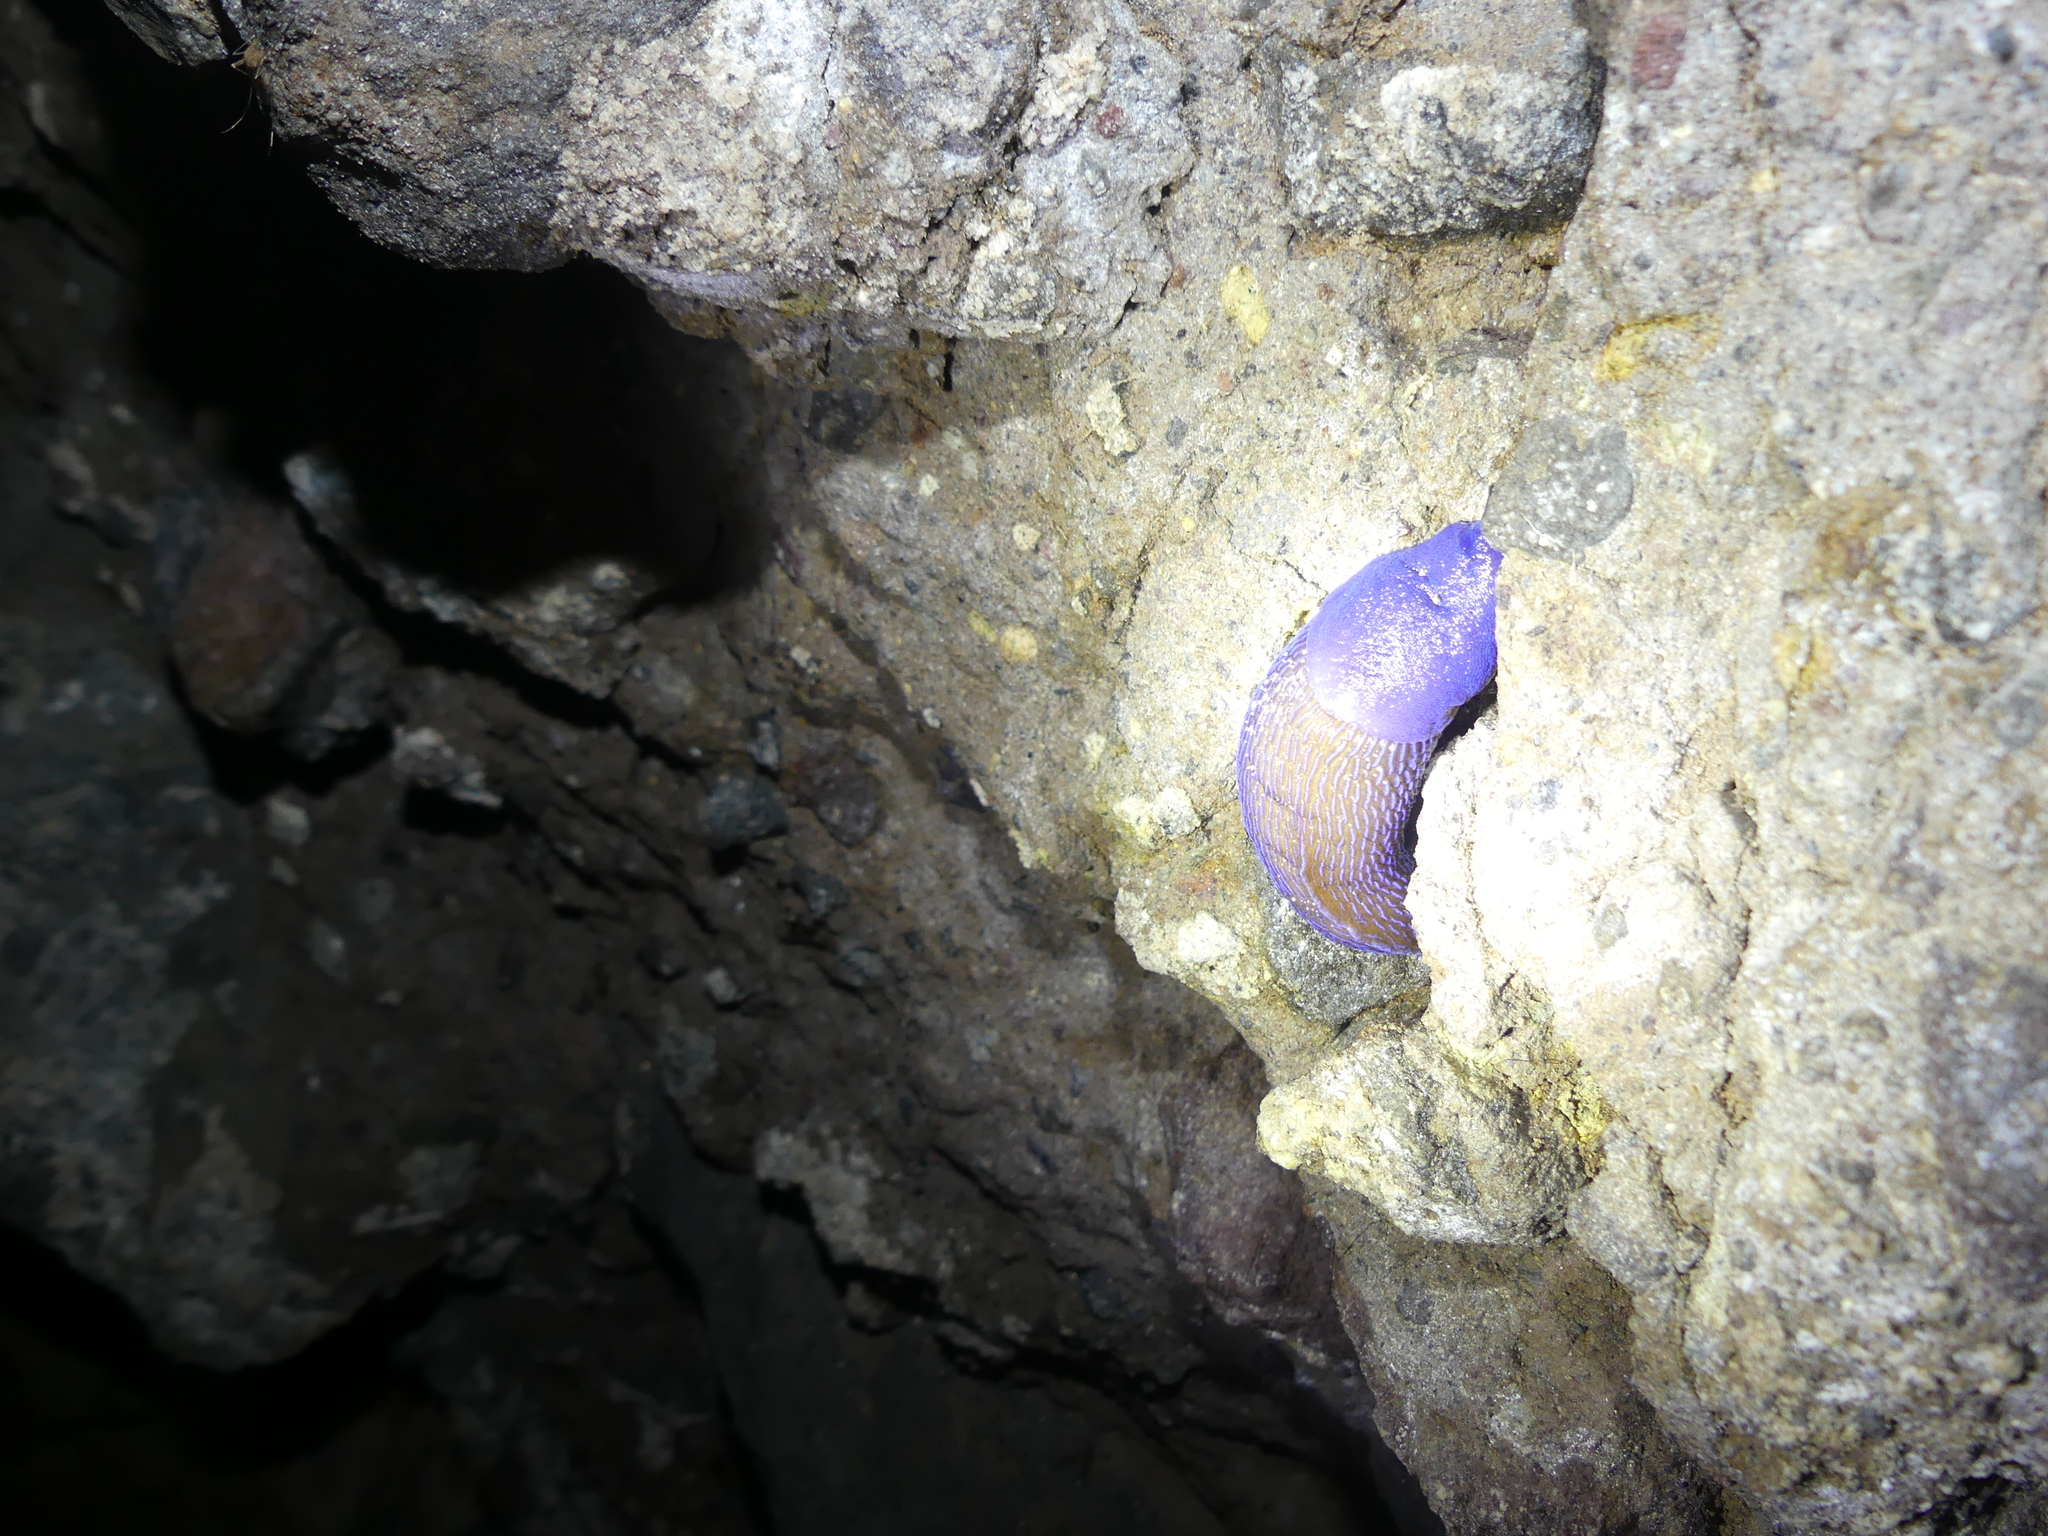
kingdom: Animalia
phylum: Mollusca
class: Gastropoda
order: Stylommatophora
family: Limacidae
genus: Bielzia
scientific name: Bielzia coerulans
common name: Carpathian blue slug
